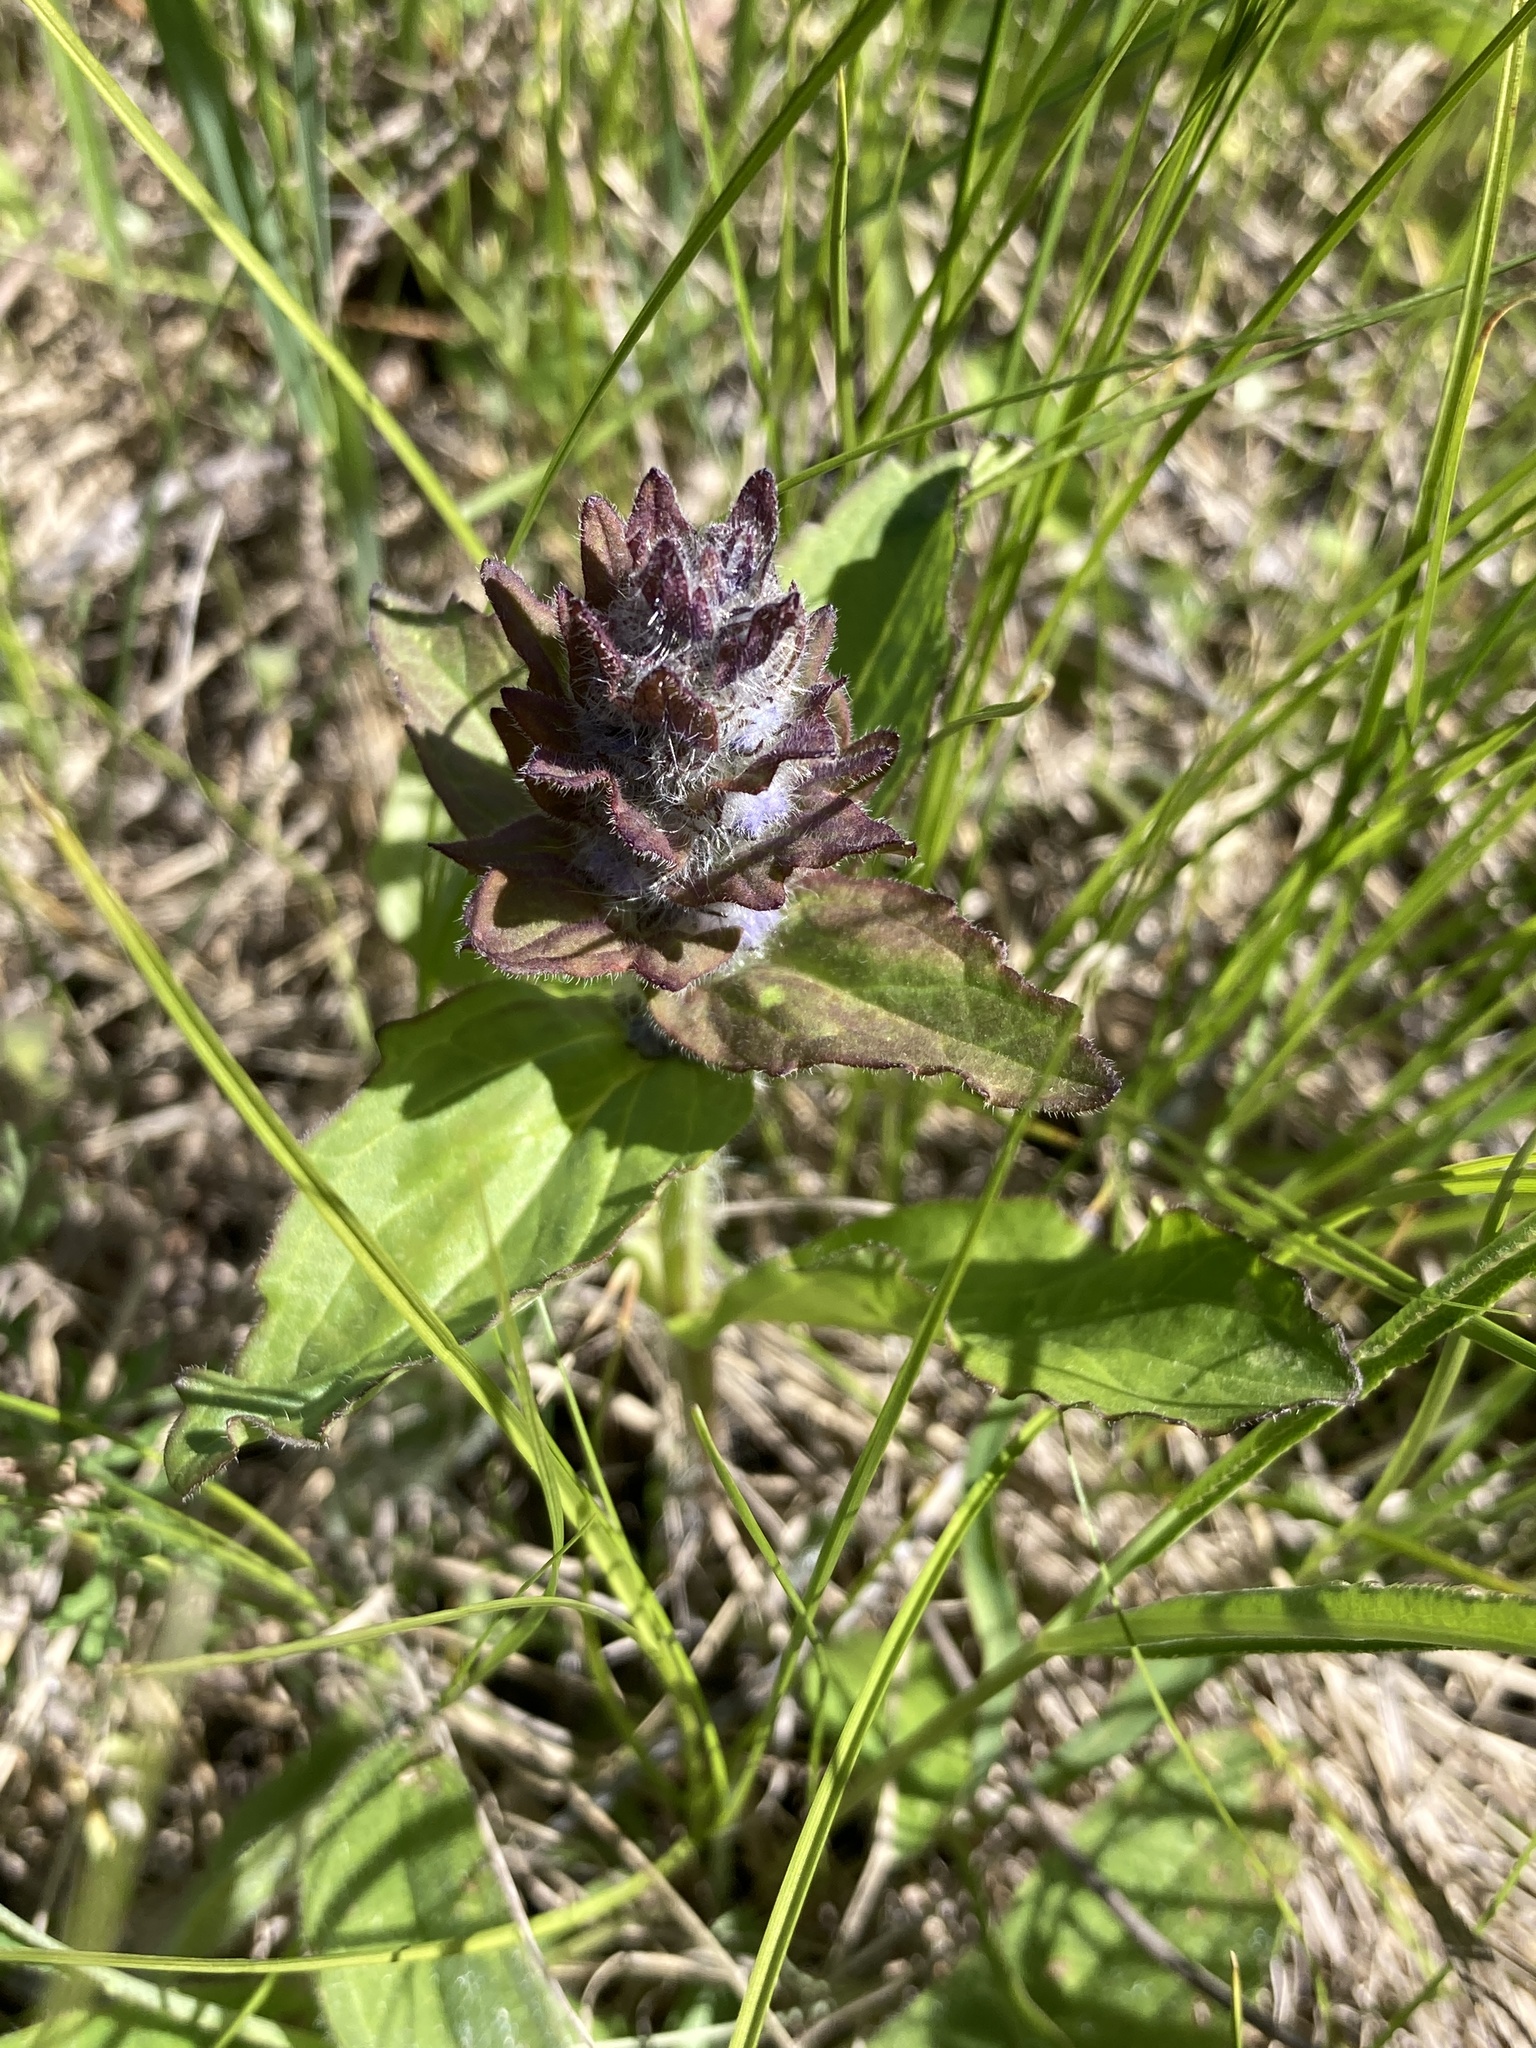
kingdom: Plantae
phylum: Tracheophyta
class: Magnoliopsida
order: Lamiales
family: Lamiaceae
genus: Ajuga
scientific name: Ajuga genevensis
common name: Blue bugle
